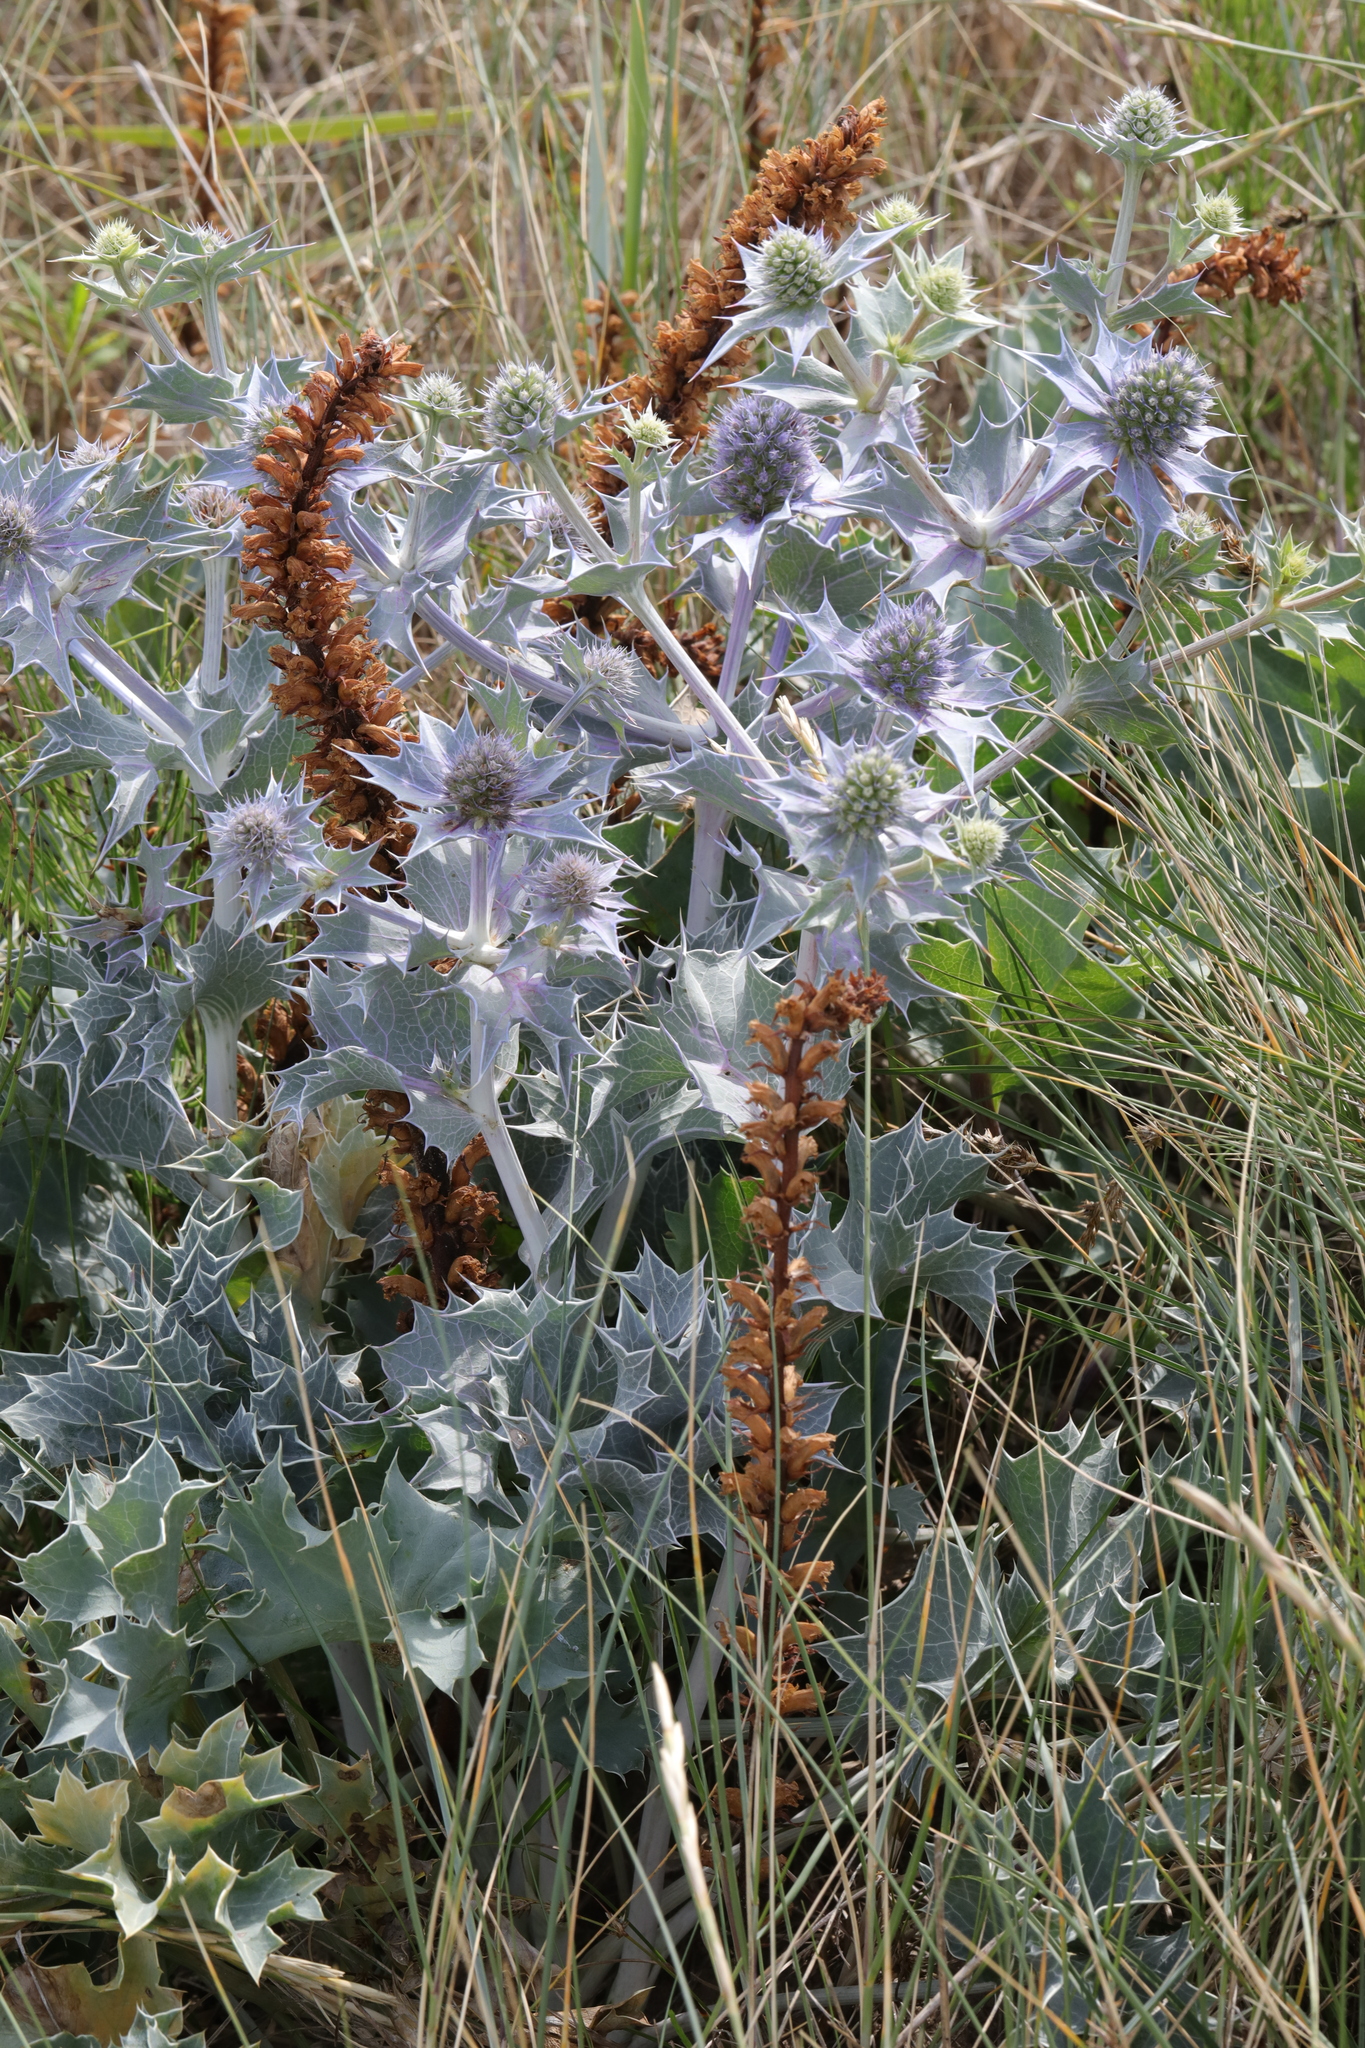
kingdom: Plantae
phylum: Tracheophyta
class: Magnoliopsida
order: Lamiales
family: Orobanchaceae
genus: Orobanche
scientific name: Orobanche minor
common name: Common broomrape
